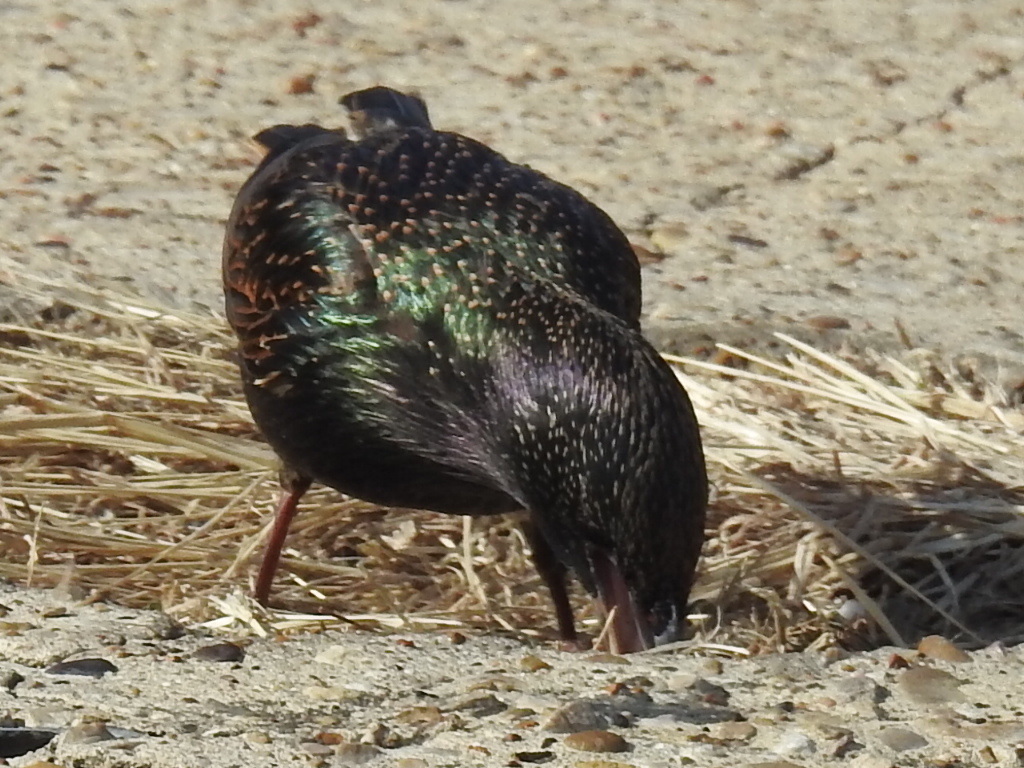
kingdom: Animalia
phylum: Chordata
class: Aves
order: Passeriformes
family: Sturnidae
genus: Sturnus
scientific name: Sturnus vulgaris
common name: Common starling
